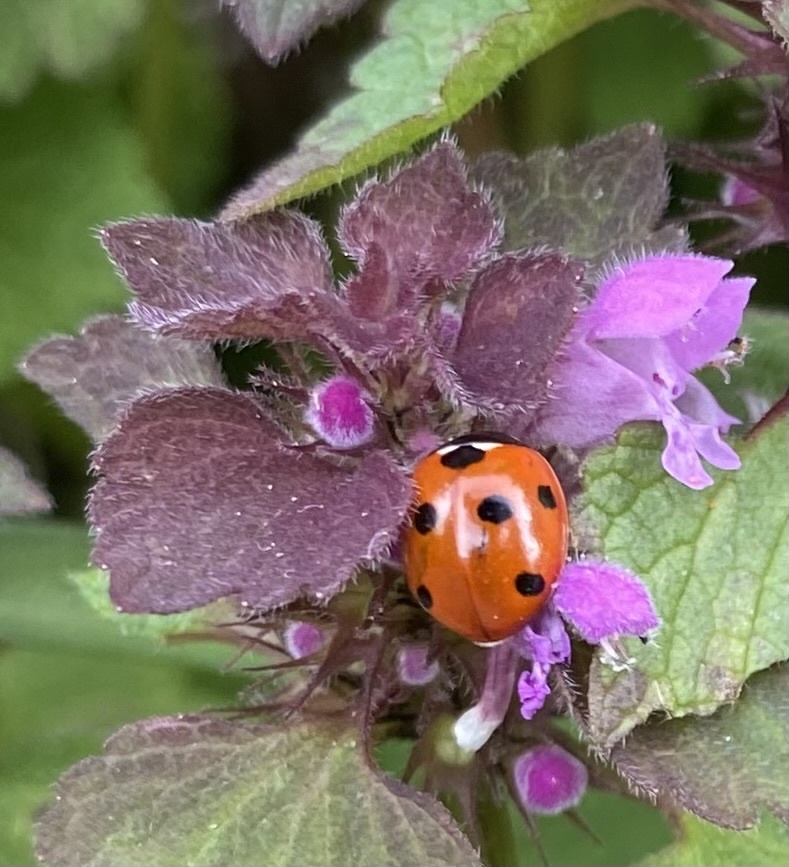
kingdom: Animalia
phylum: Arthropoda
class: Insecta
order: Coleoptera
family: Coccinellidae
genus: Coccinella
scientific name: Coccinella septempunctata
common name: Sevenspotted lady beetle
